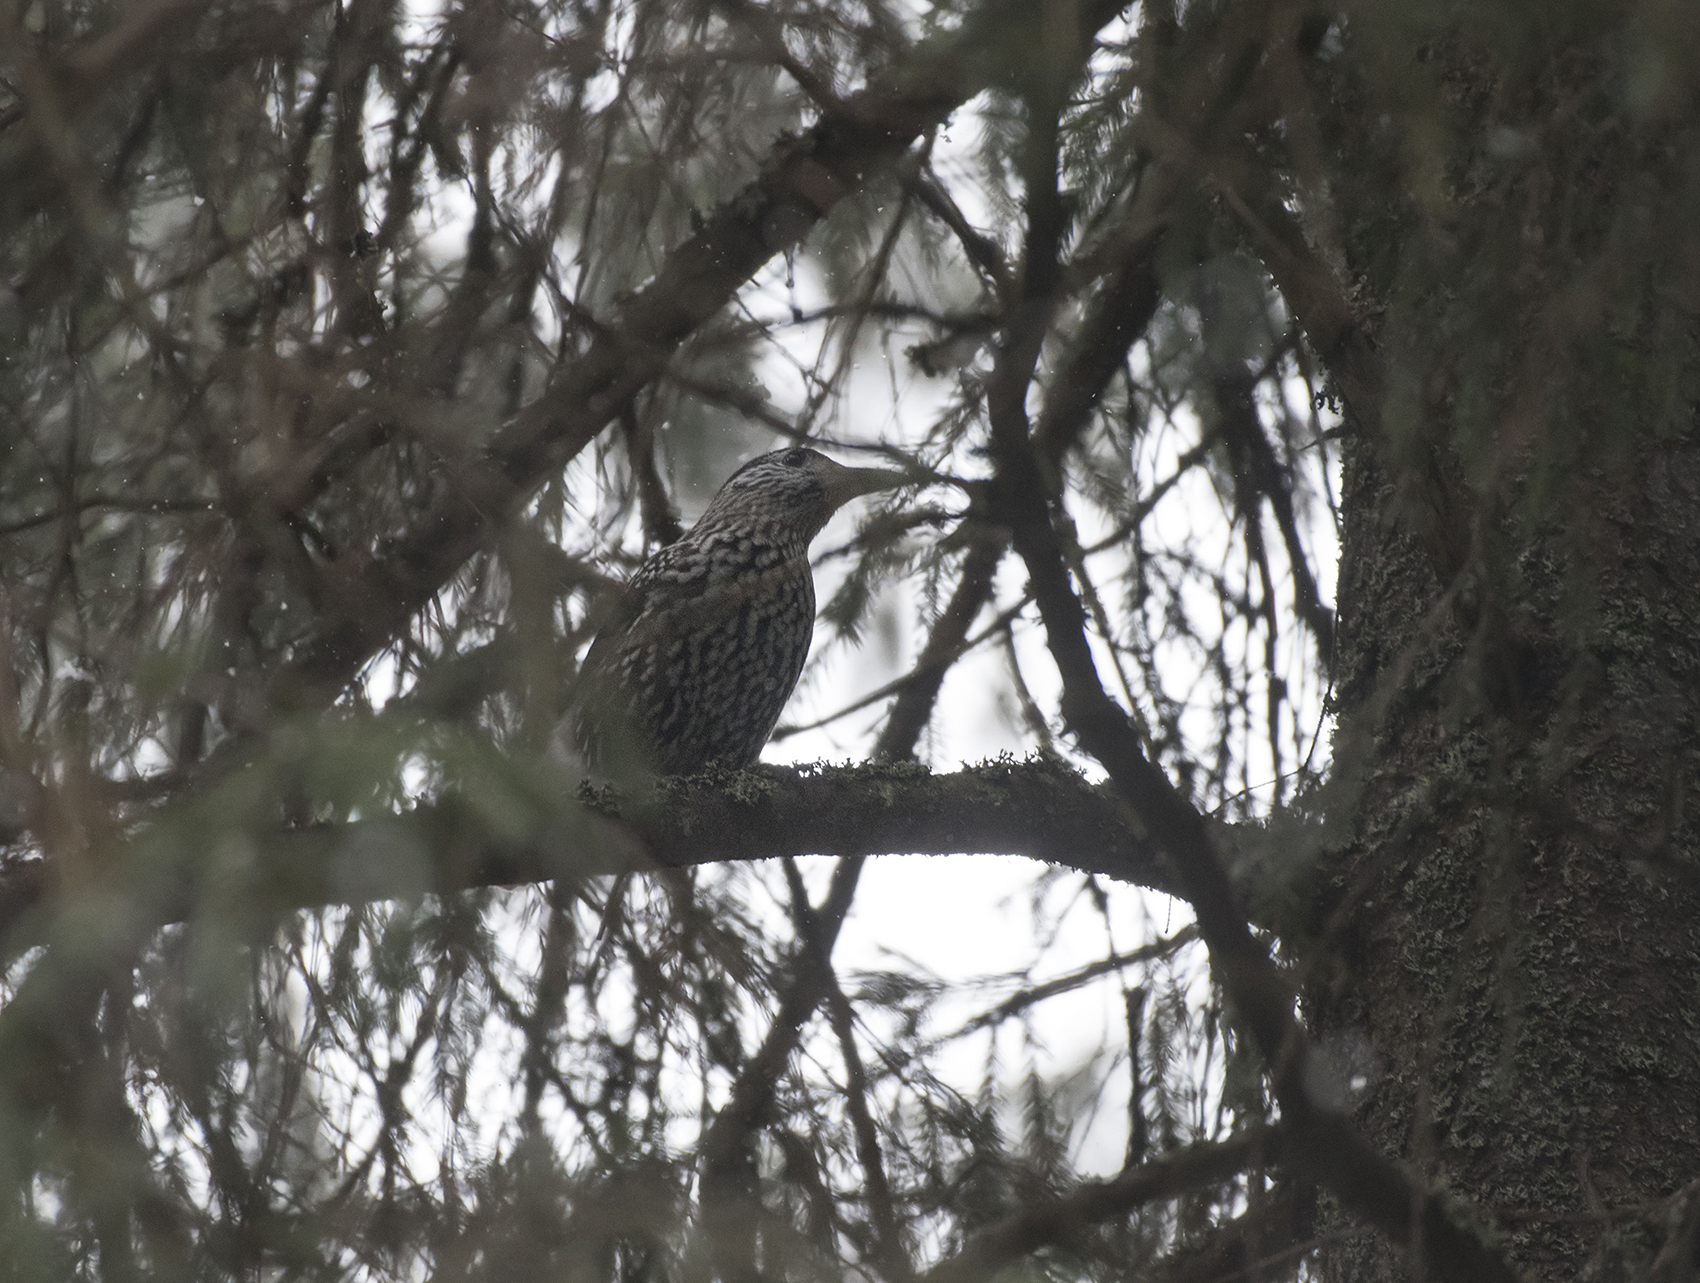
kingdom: Animalia
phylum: Chordata
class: Aves
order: Passeriformes
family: Corvidae
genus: Nucifraga
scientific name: Nucifraga caryocatactes
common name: Spotted nutcracker
